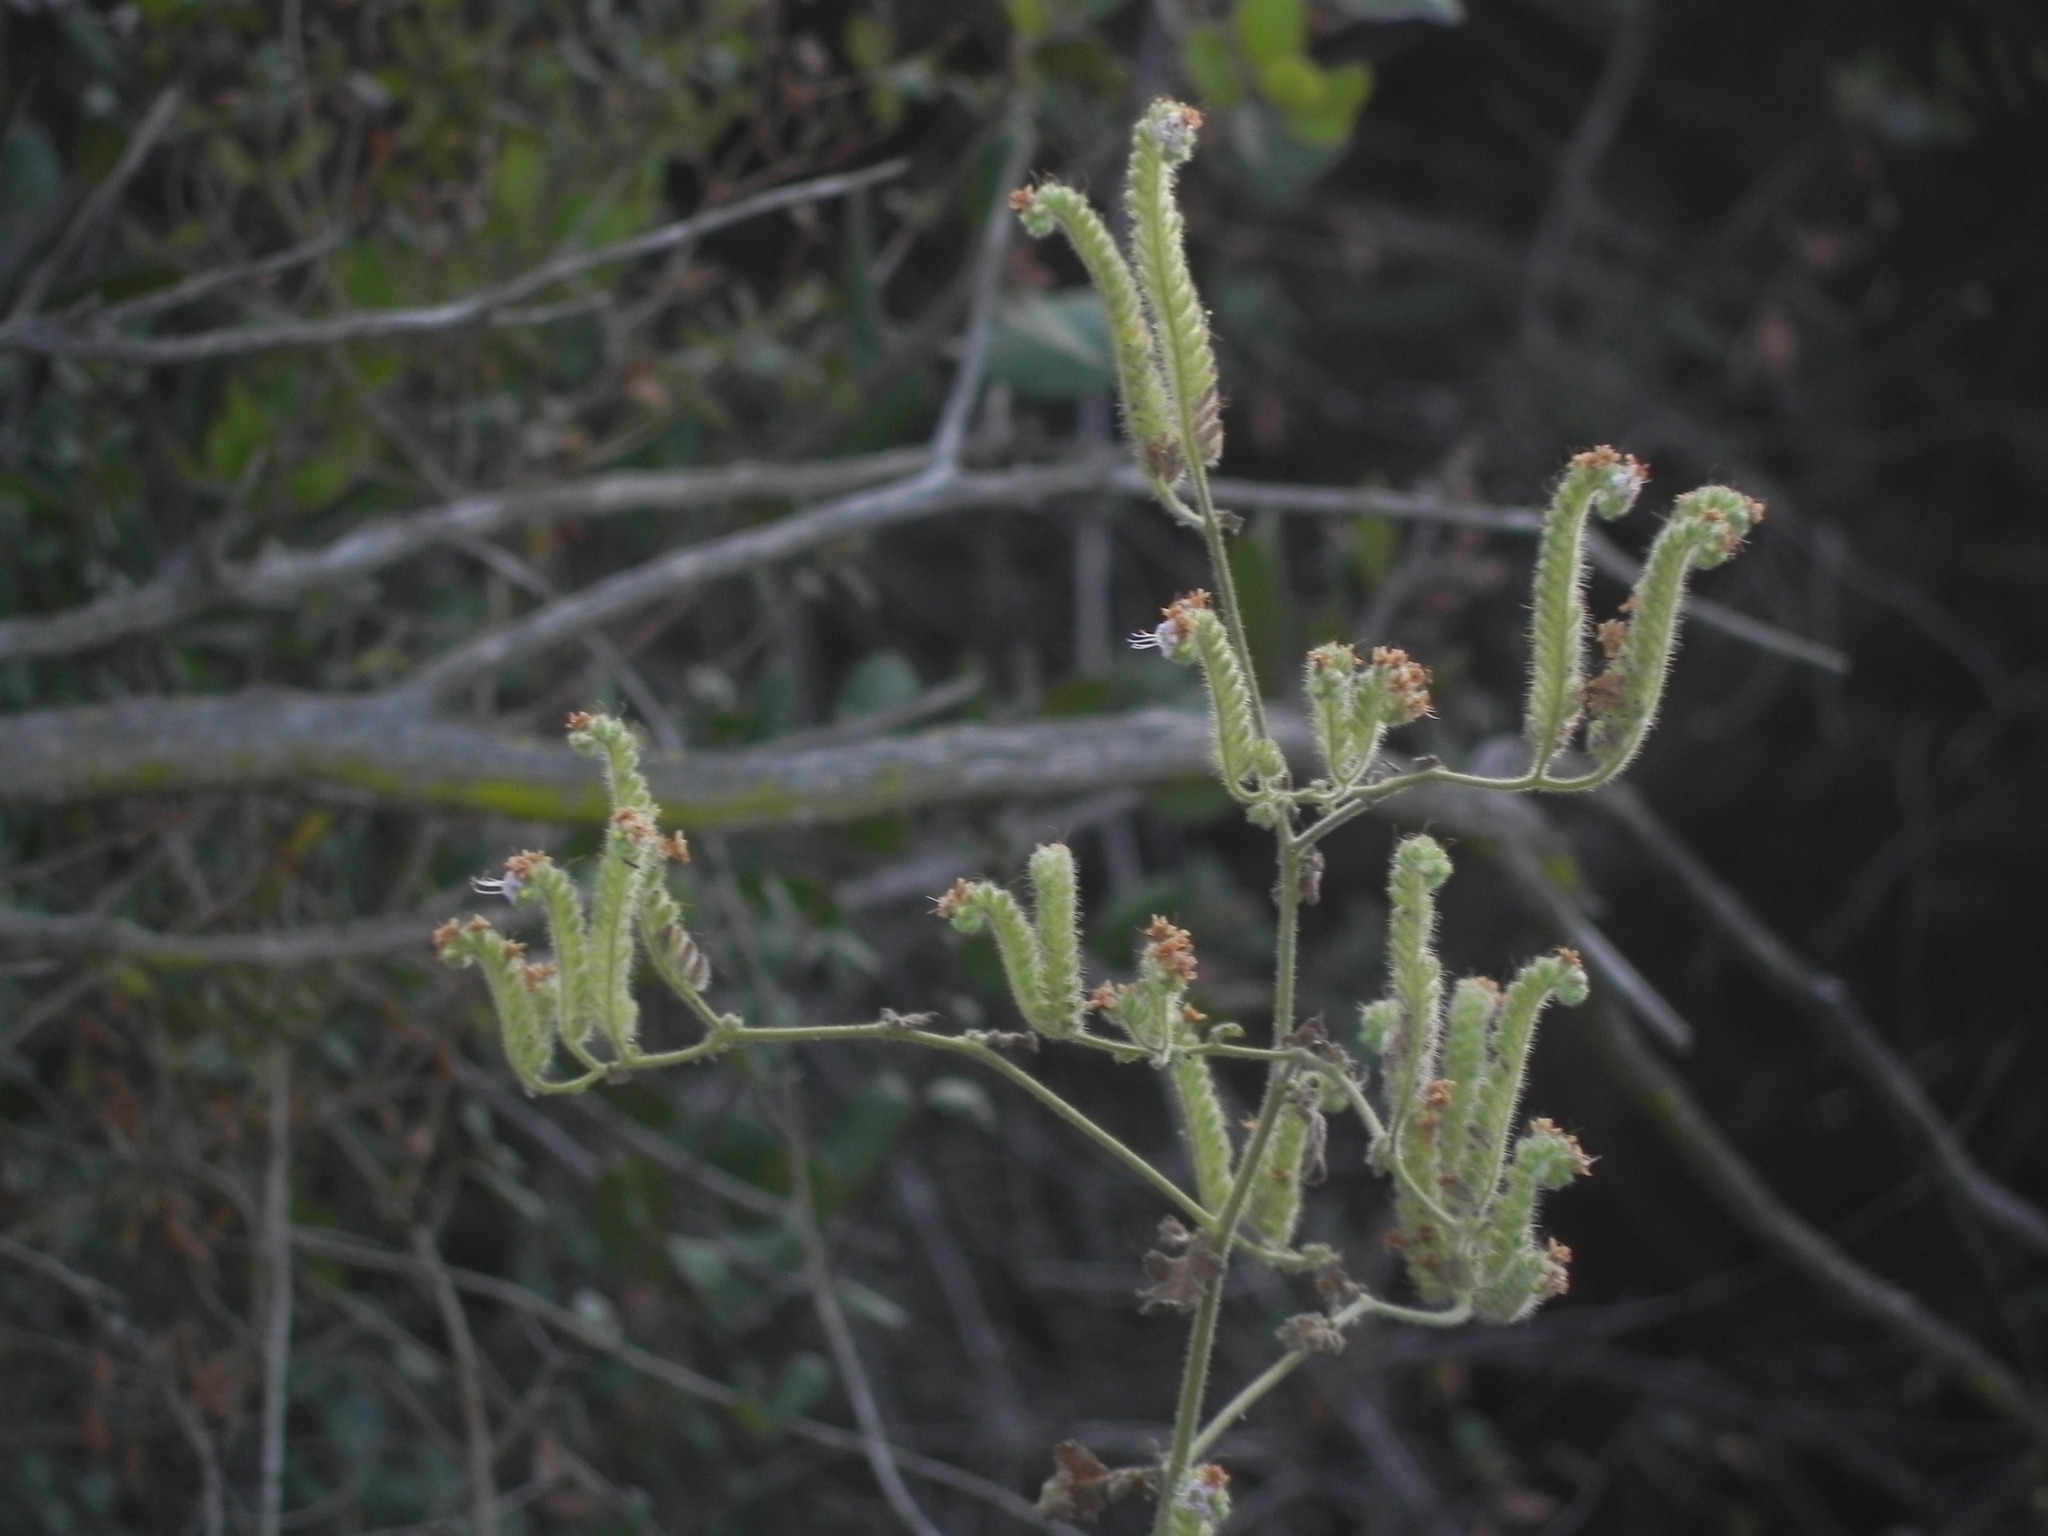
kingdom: Plantae
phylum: Tracheophyta
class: Magnoliopsida
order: Boraginales
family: Hydrophyllaceae
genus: Phacelia
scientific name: Phacelia ramosissima
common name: Branching phacelia
